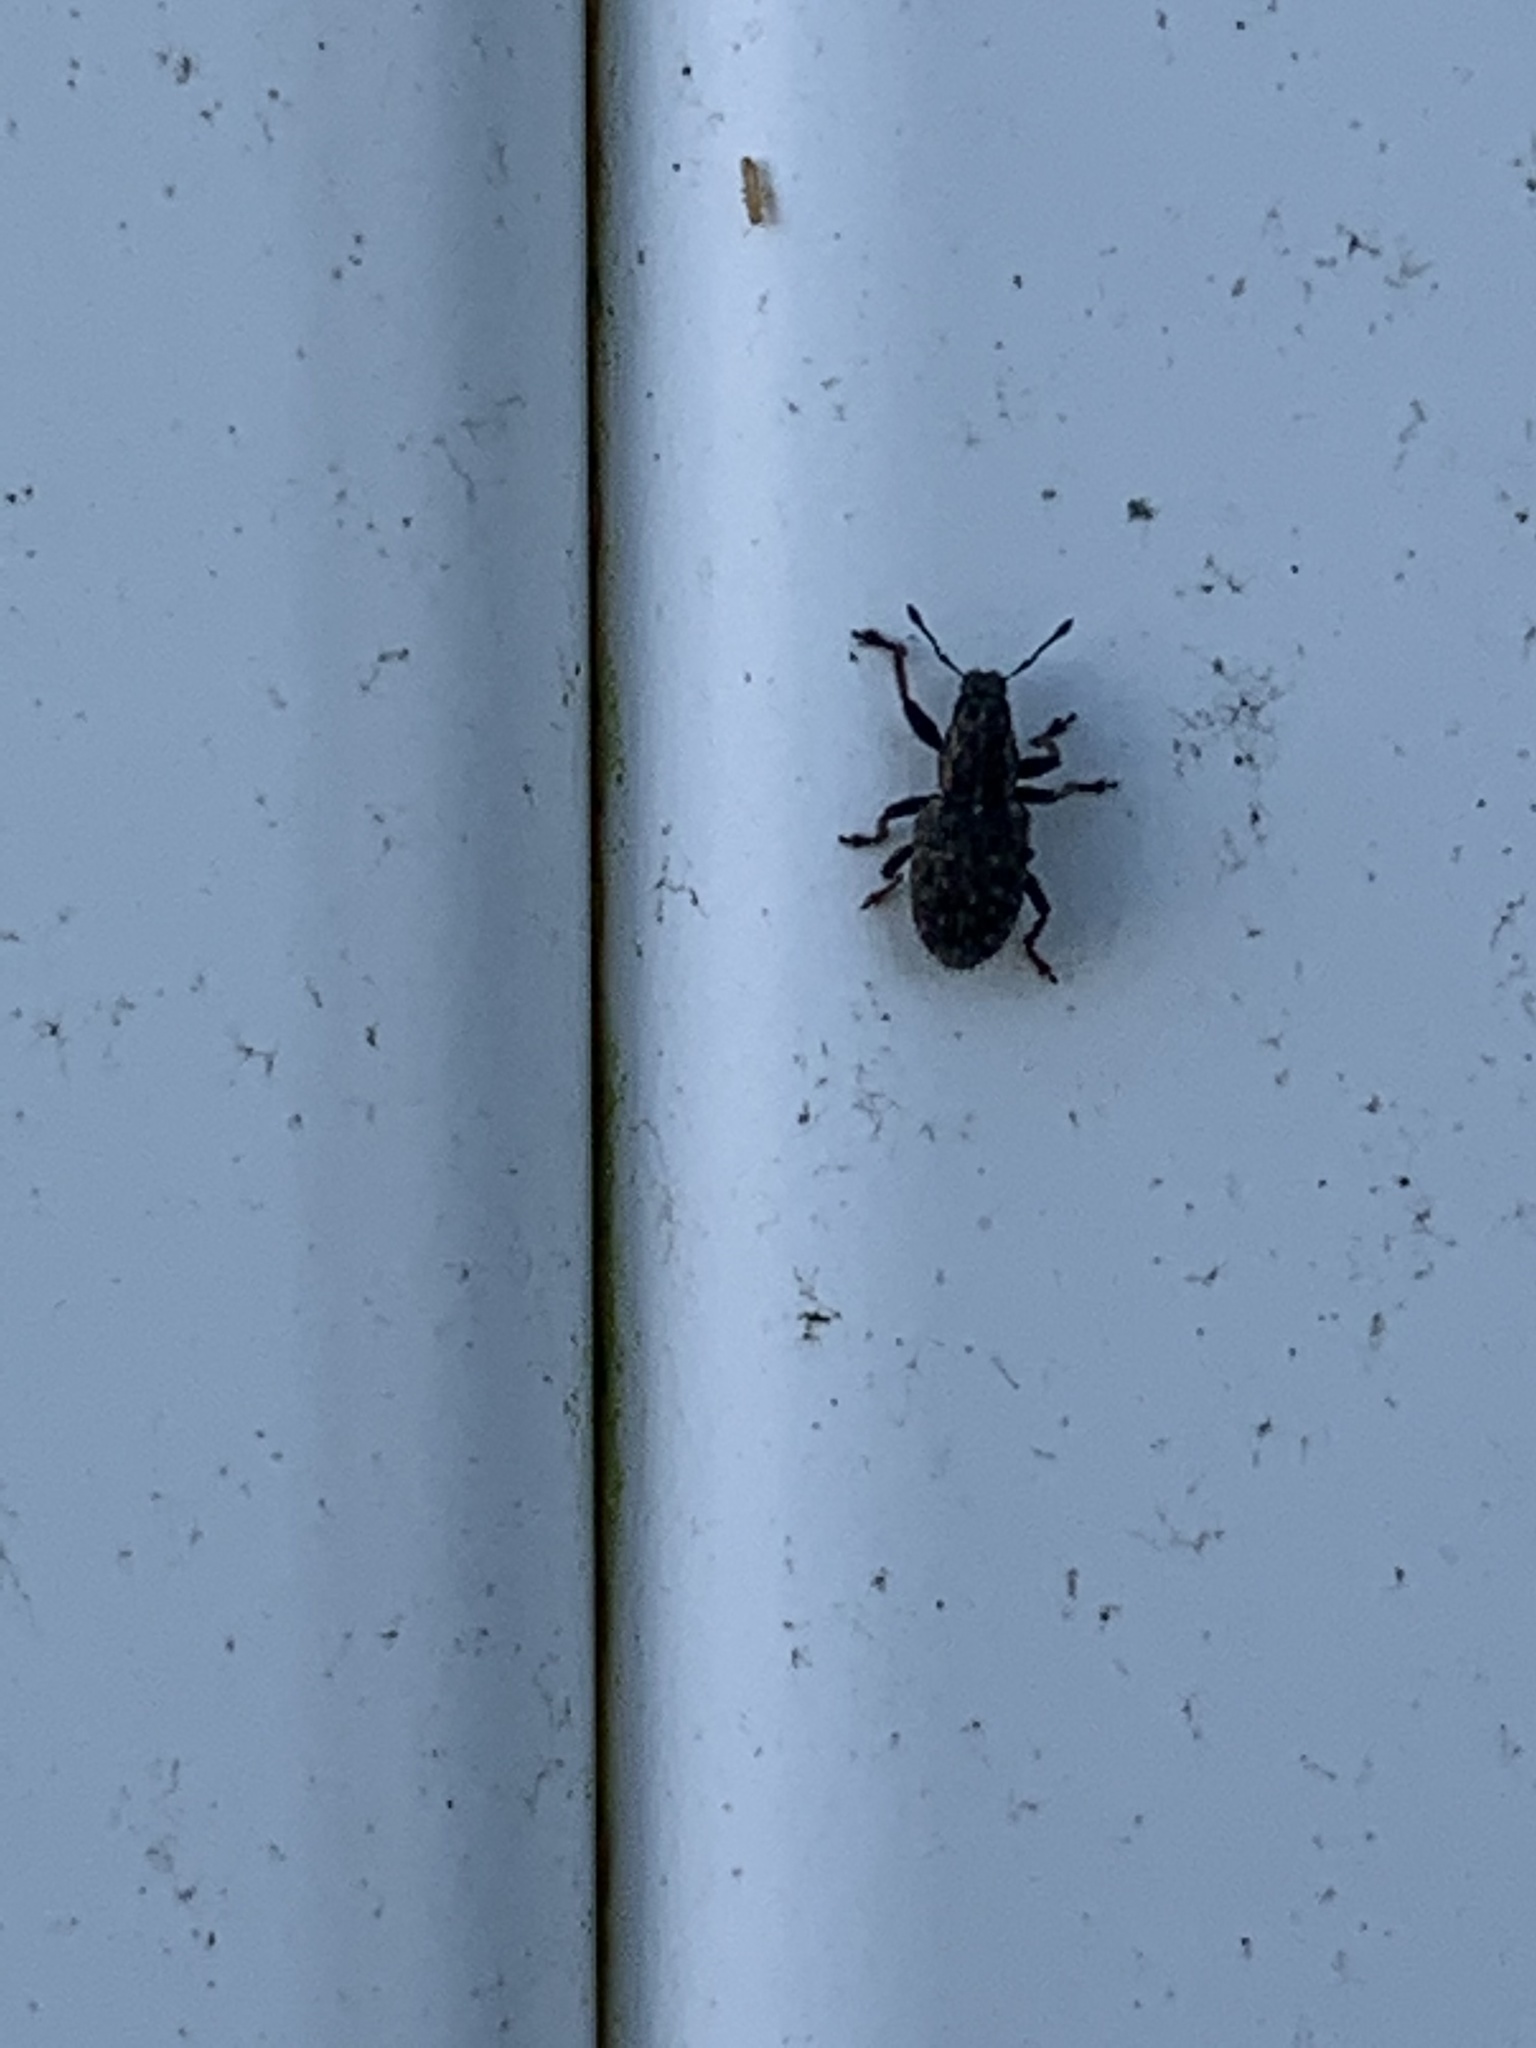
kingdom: Animalia
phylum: Arthropoda
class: Insecta
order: Coleoptera
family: Curculionidae
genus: Sitona
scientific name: Sitona hispidulus
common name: Clover weevil
